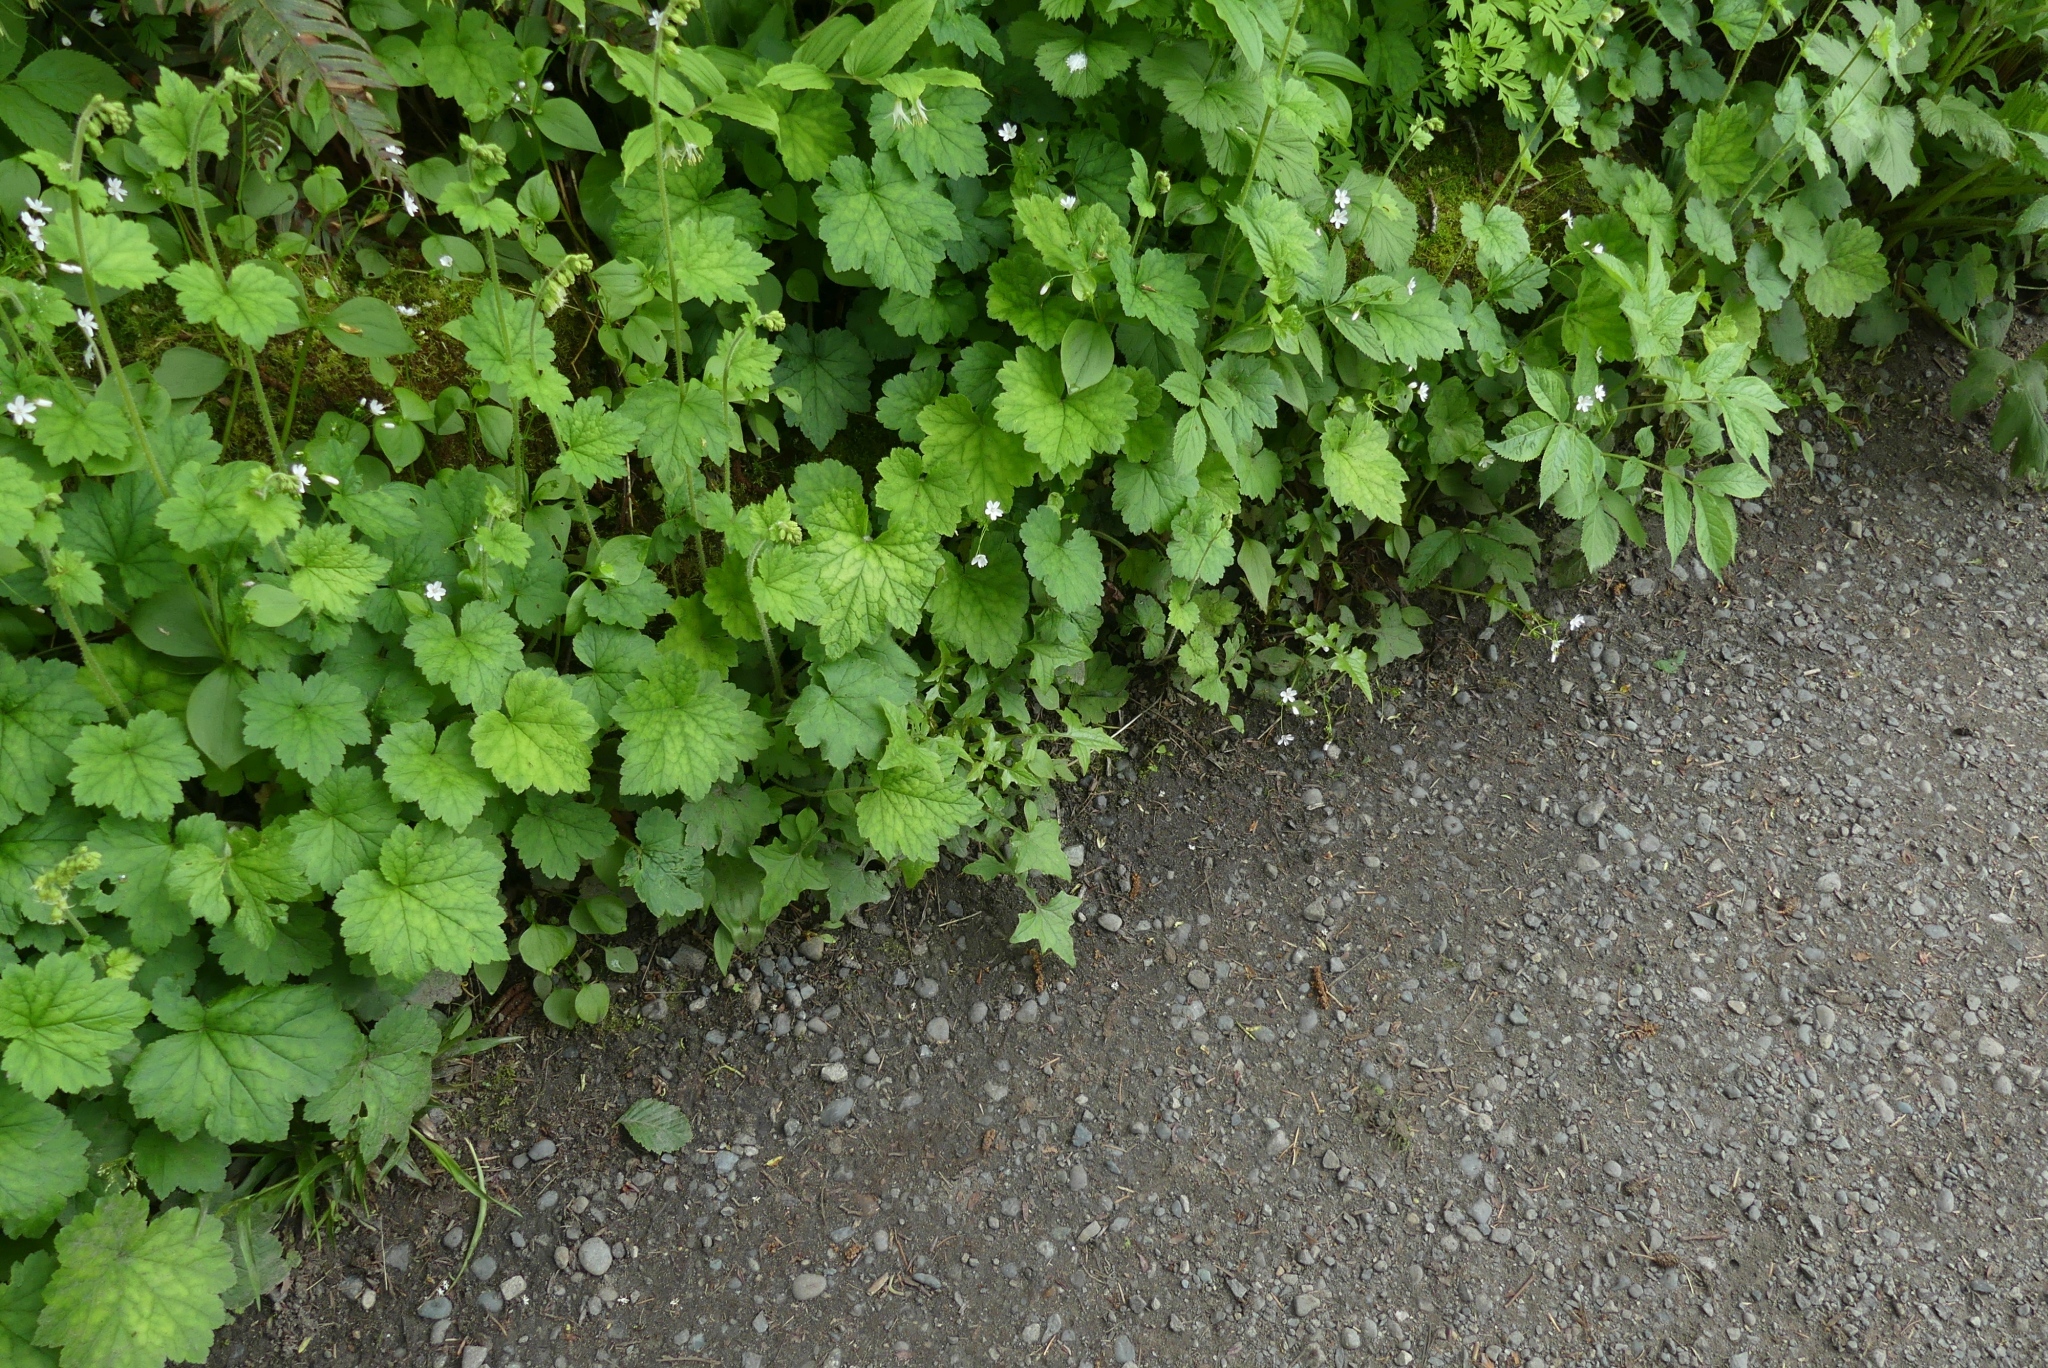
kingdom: Plantae
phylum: Tracheophyta
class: Magnoliopsida
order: Asterales
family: Asteraceae
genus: Mycelis
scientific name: Mycelis muralis
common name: Wall lettuce
